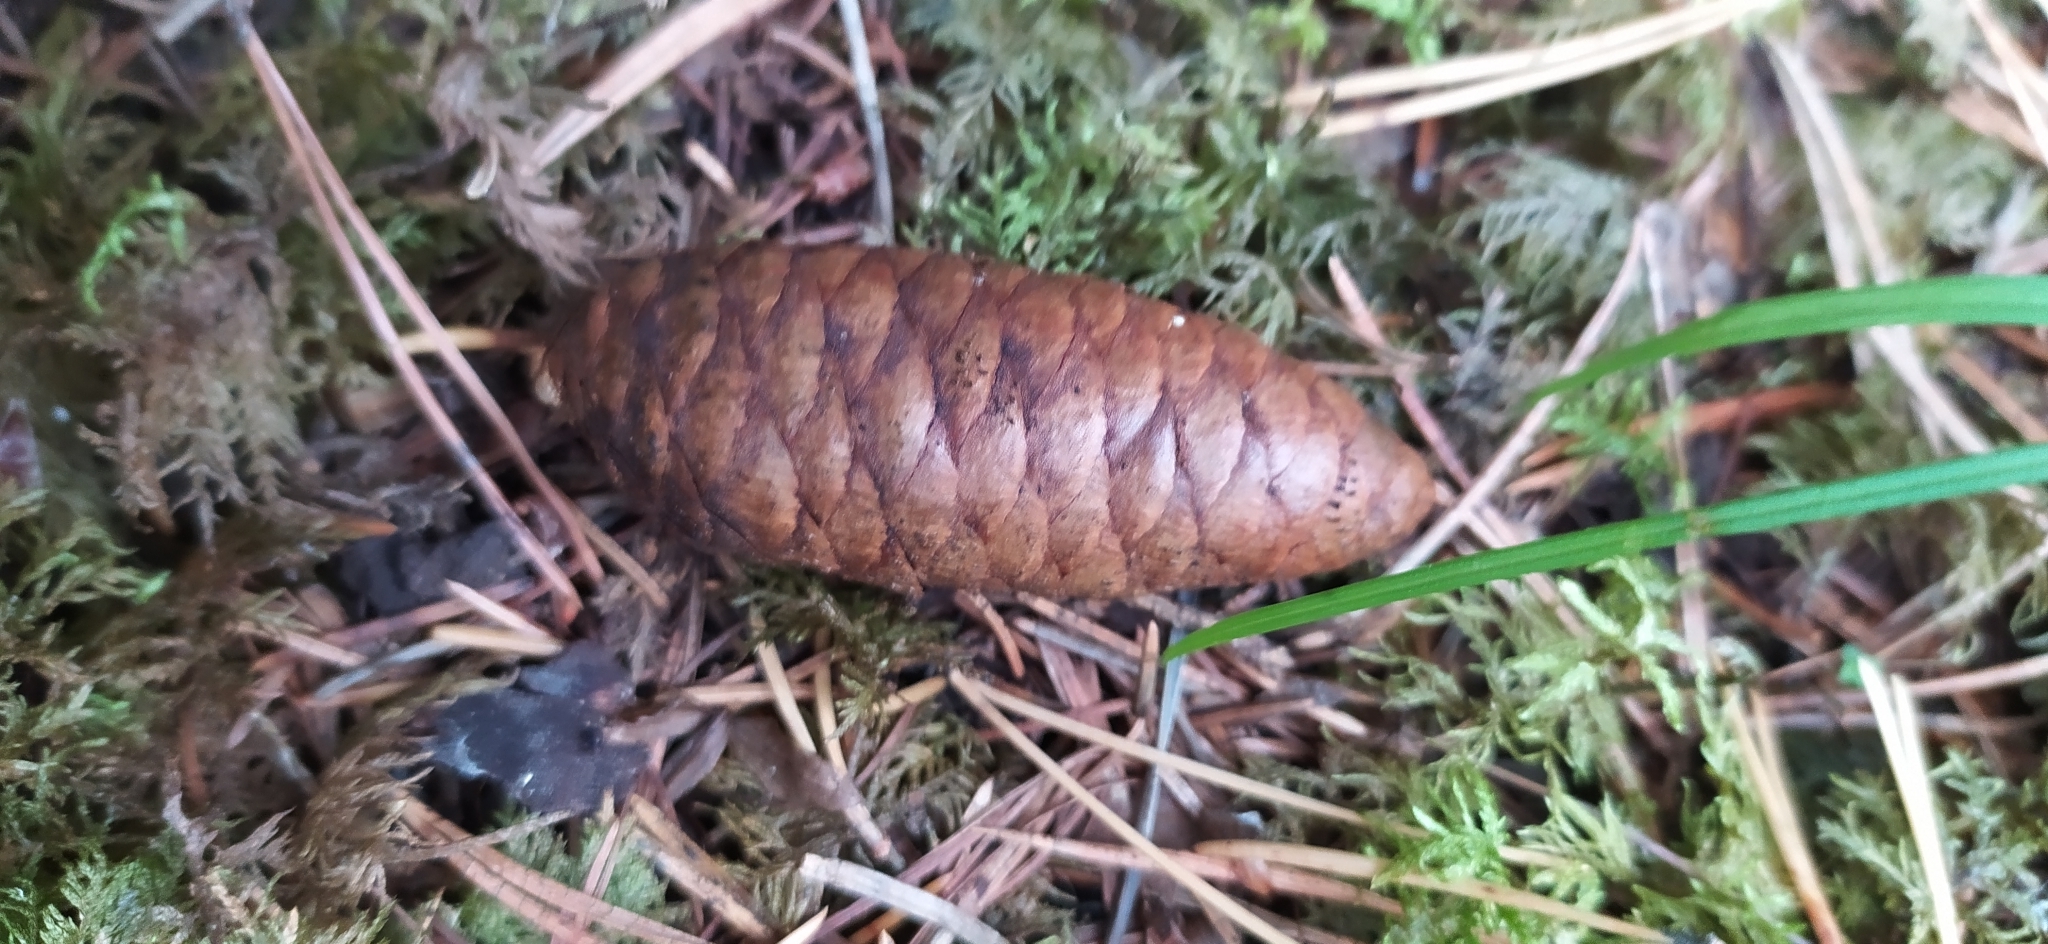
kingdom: Plantae
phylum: Tracheophyta
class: Pinopsida
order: Pinales
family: Pinaceae
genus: Picea
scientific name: Picea obovata
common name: Siberian spruce
